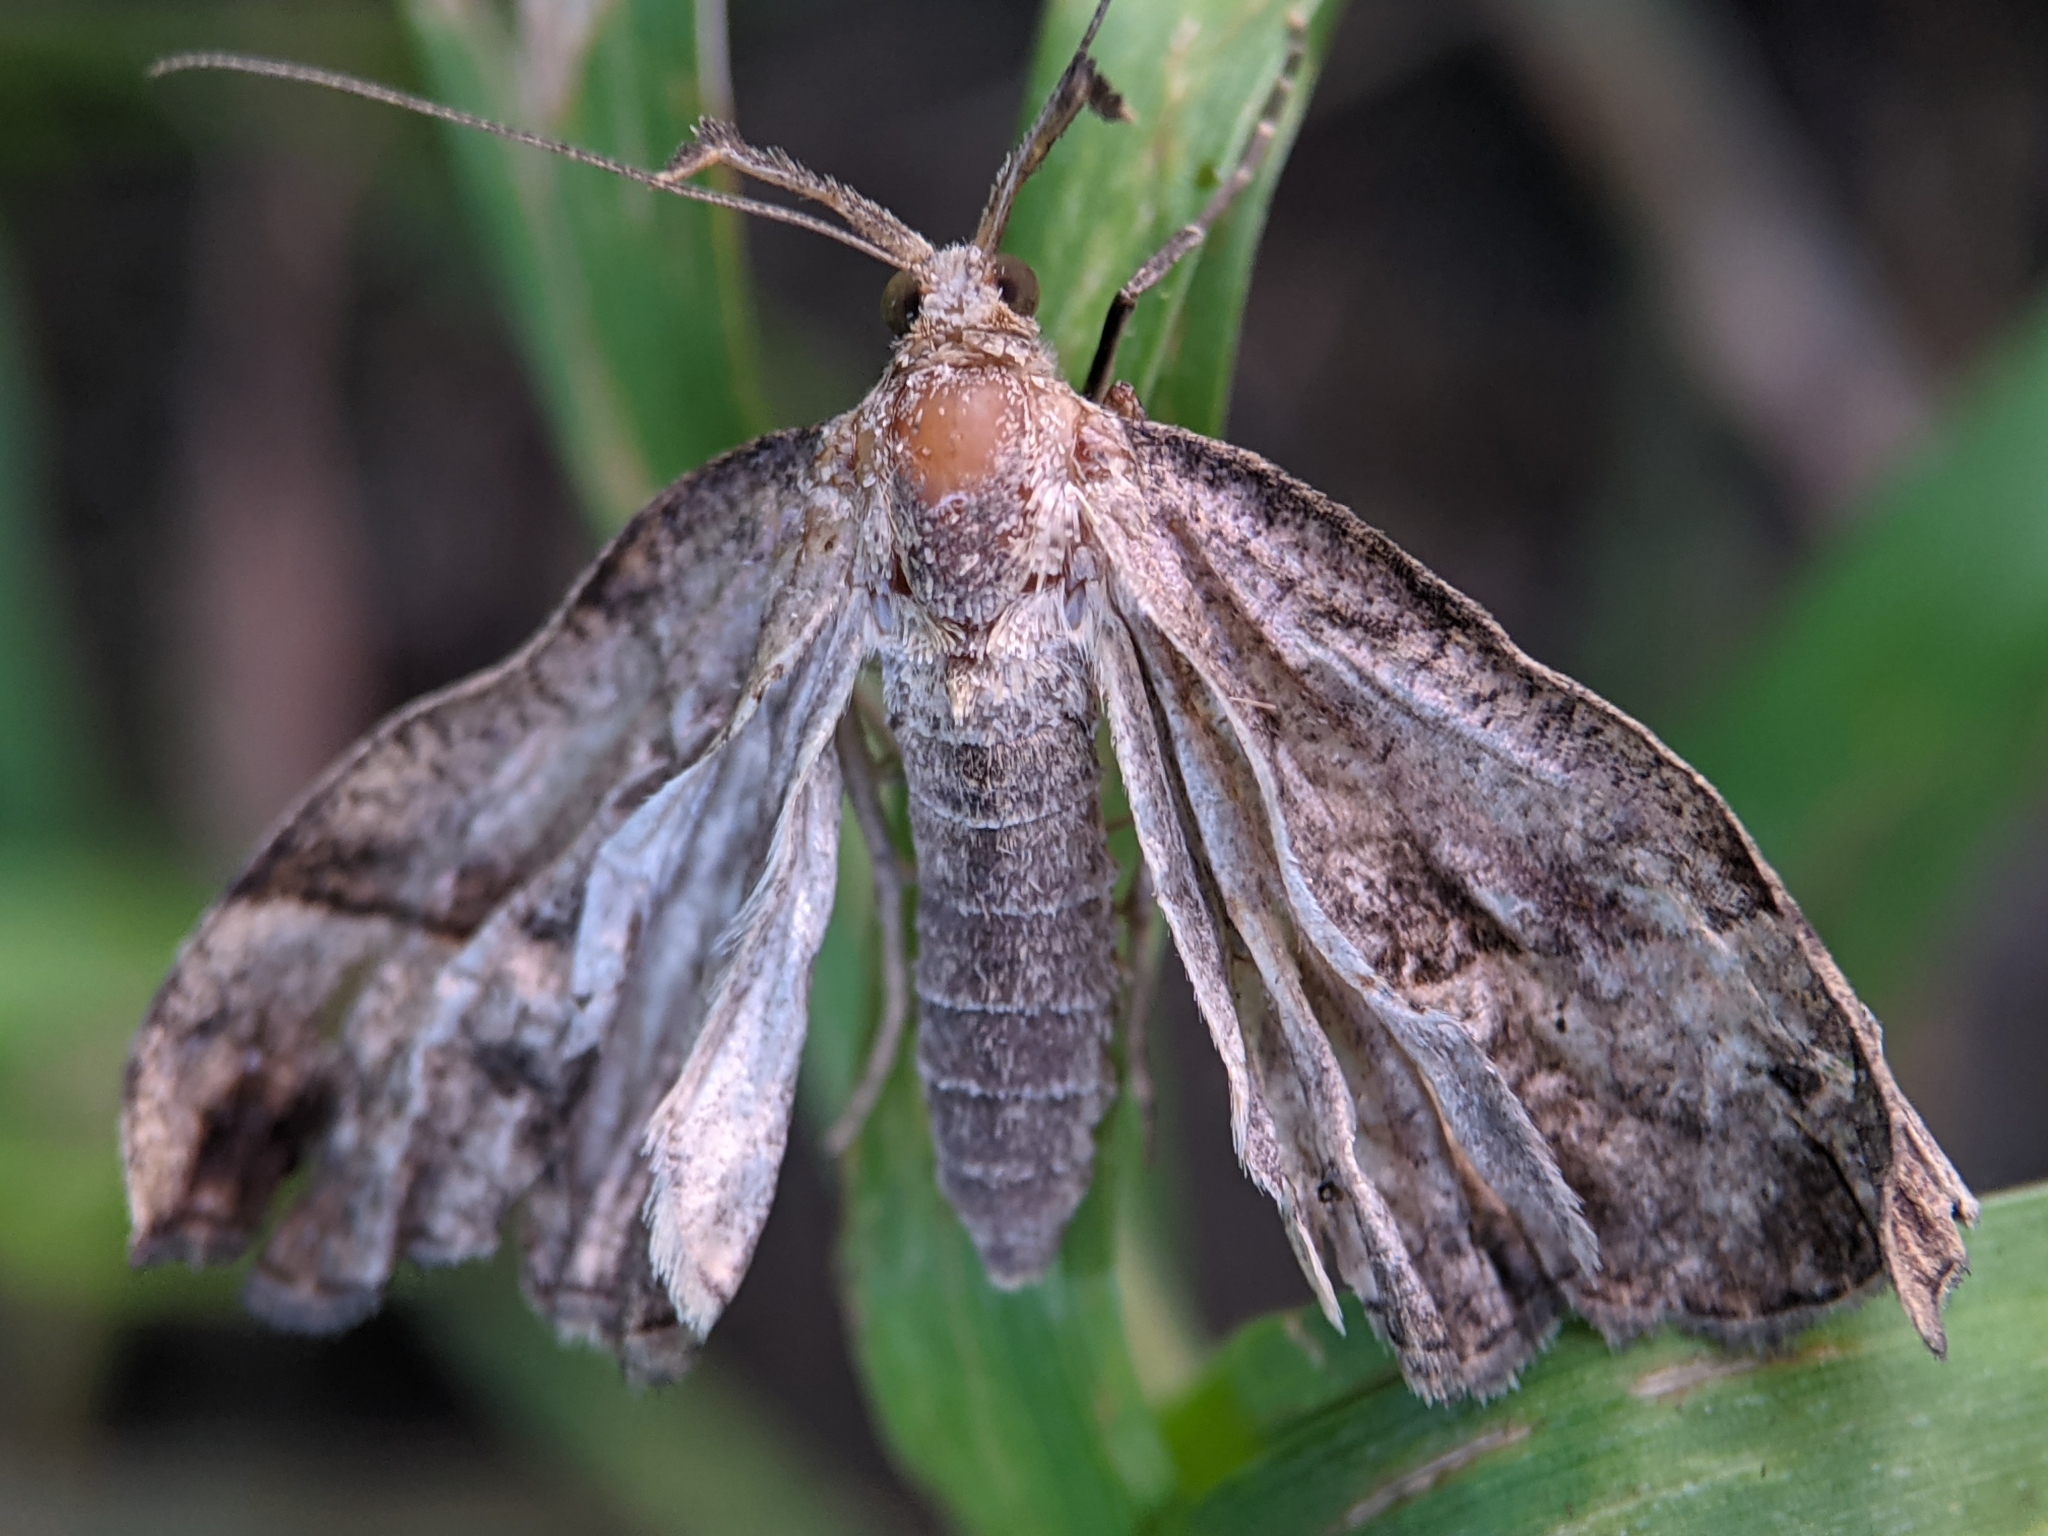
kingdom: Animalia
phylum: Arthropoda
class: Insecta
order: Lepidoptera
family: Erebidae
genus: Hypena
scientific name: Hypena proboscidalis
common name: Snout
